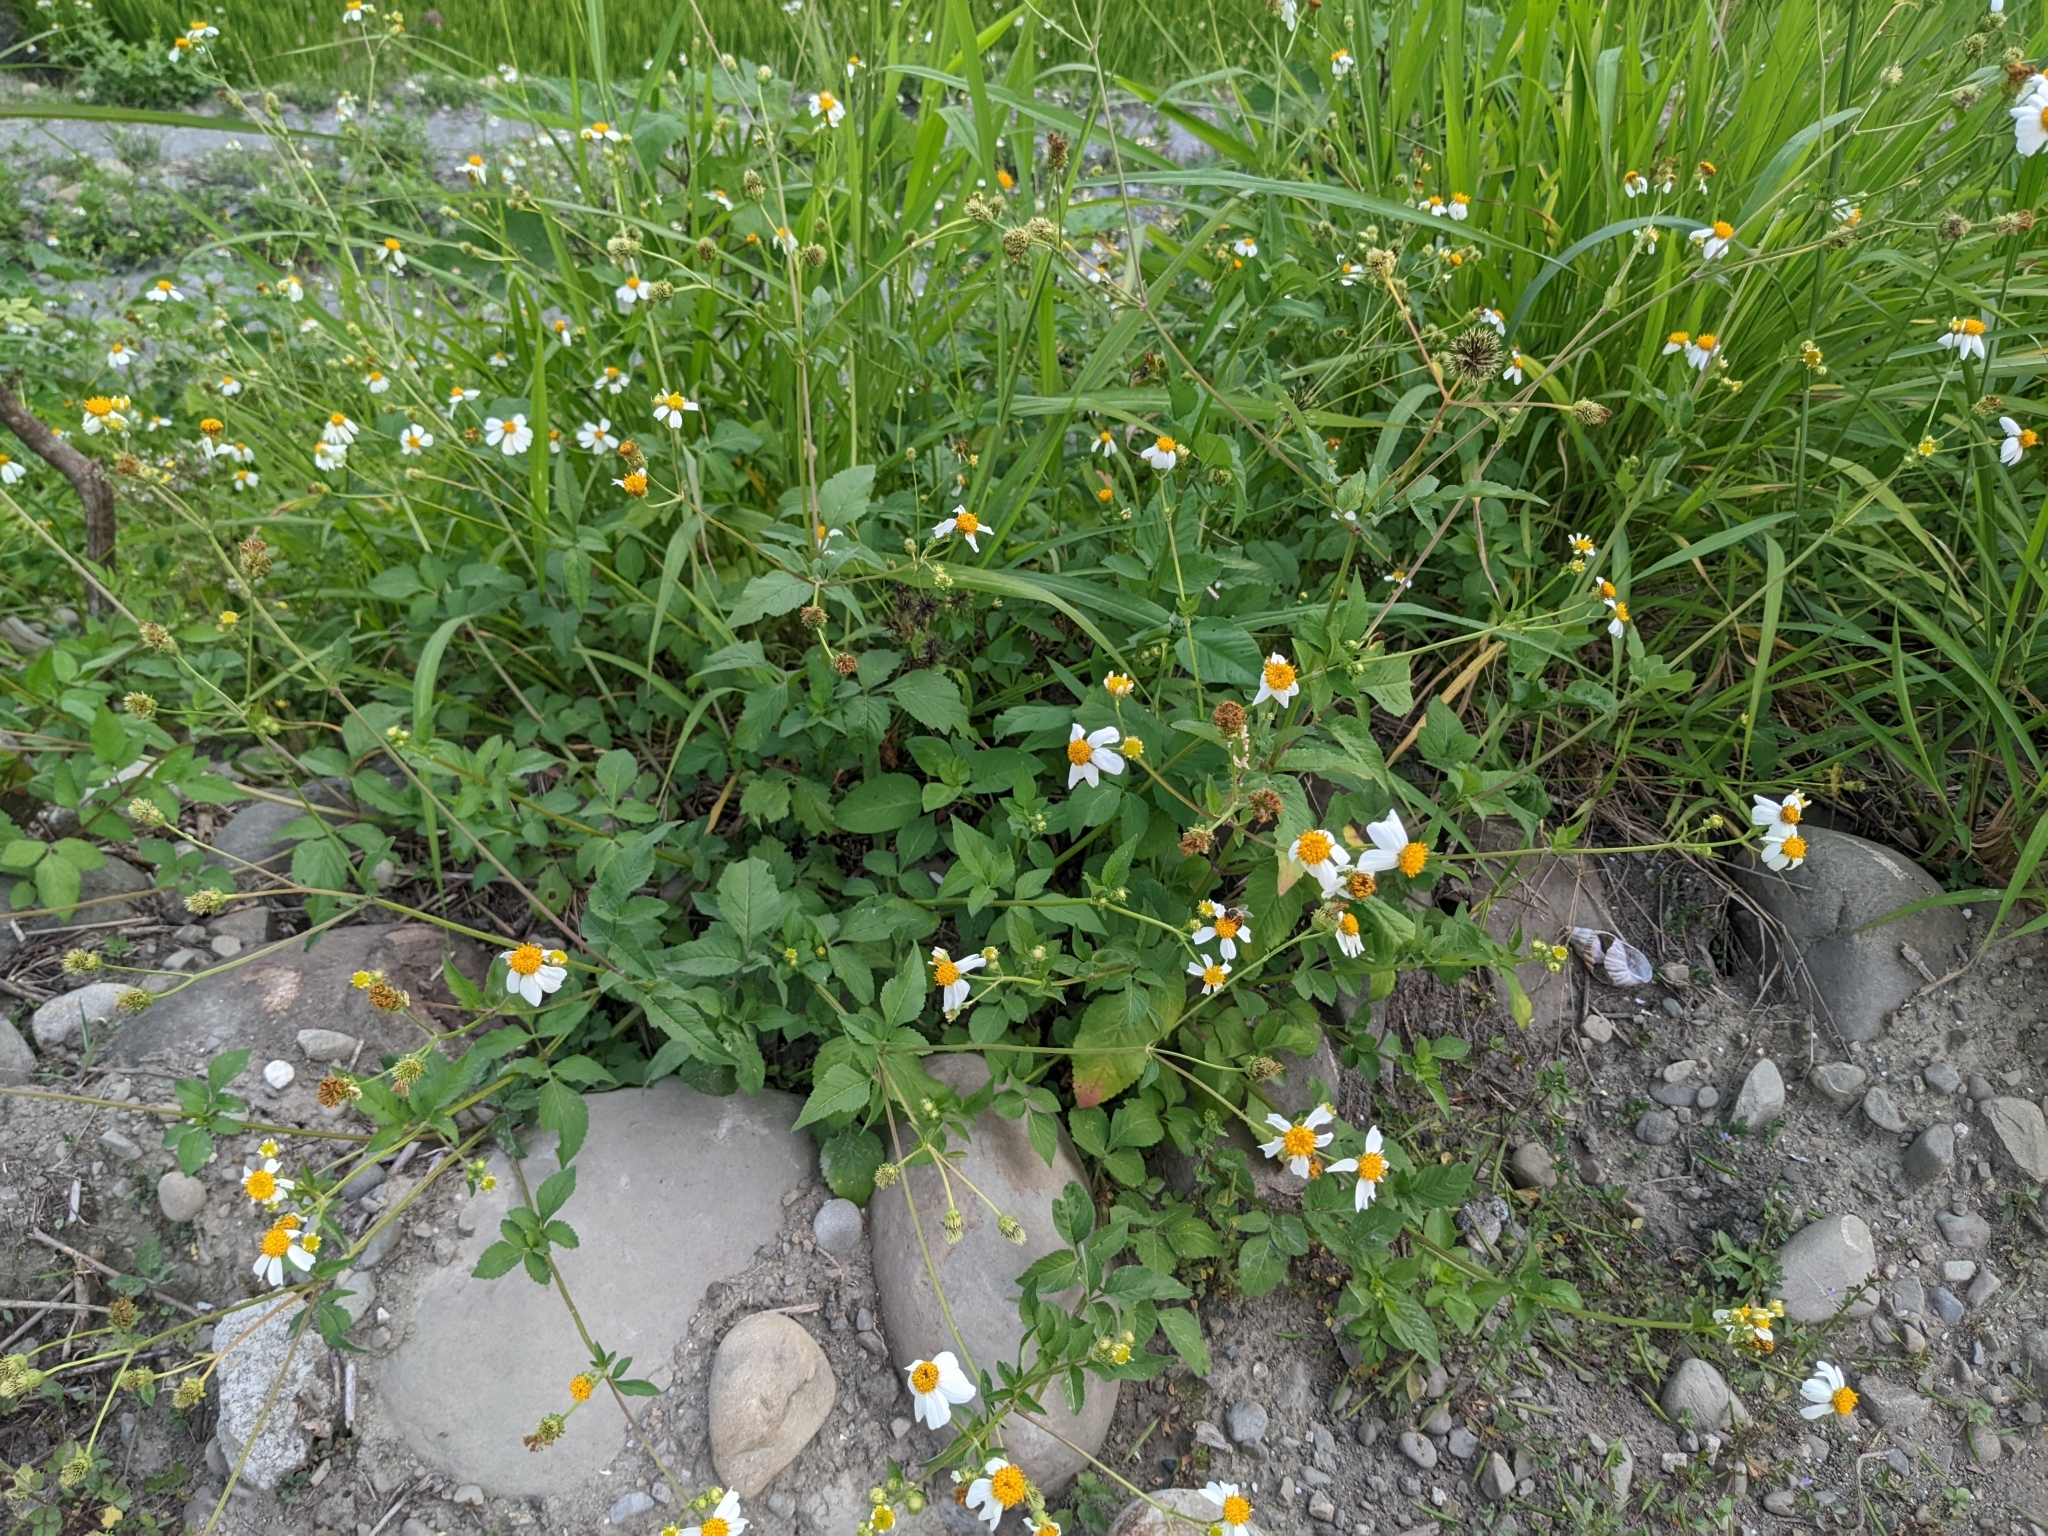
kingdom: Plantae
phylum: Tracheophyta
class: Magnoliopsida
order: Asterales
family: Asteraceae
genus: Bidens
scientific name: Bidens alba
